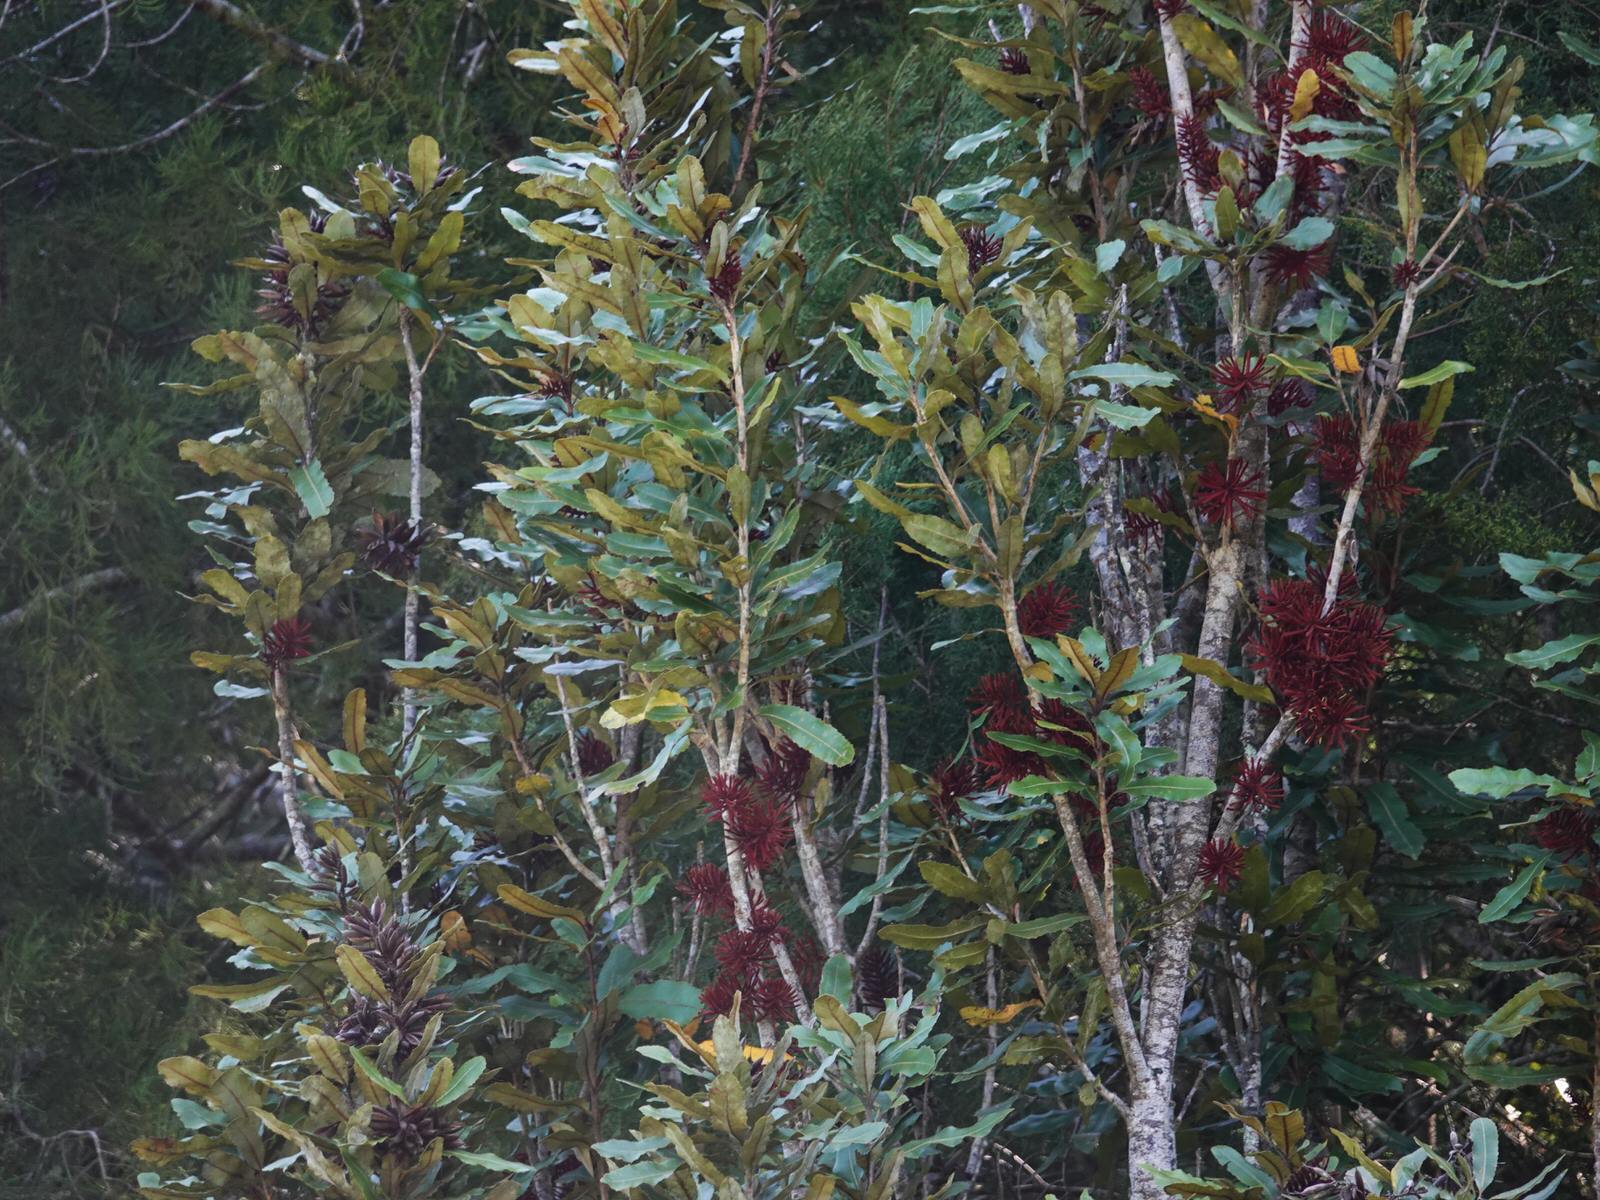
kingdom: Plantae
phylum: Tracheophyta
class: Magnoliopsida
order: Proteales
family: Proteaceae
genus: Knightia
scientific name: Knightia excelsa
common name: New zealand-honeysuckle
